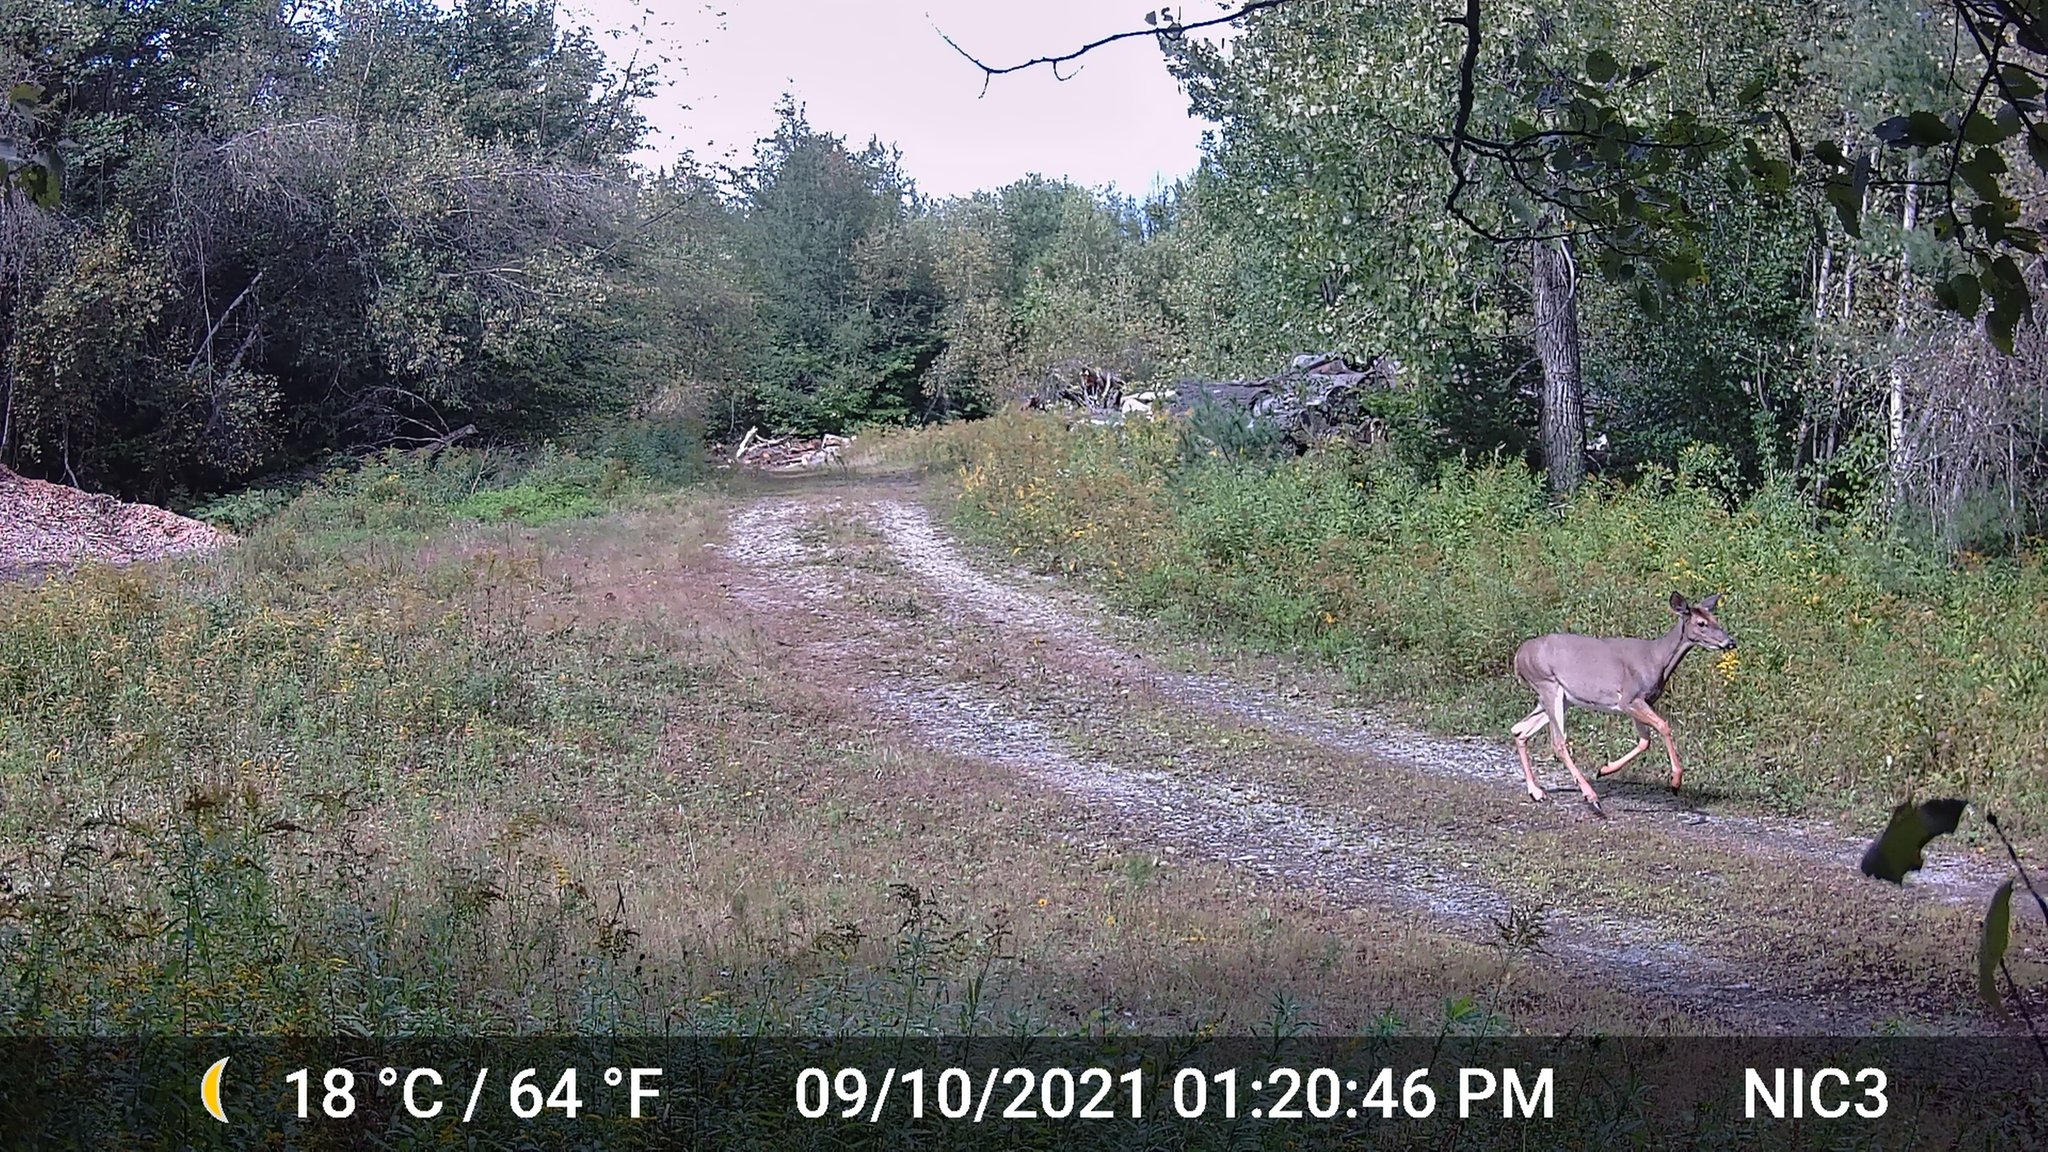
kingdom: Animalia
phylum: Chordata
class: Mammalia
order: Artiodactyla
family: Cervidae
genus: Odocoileus
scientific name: Odocoileus virginianus
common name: White-tailed deer
